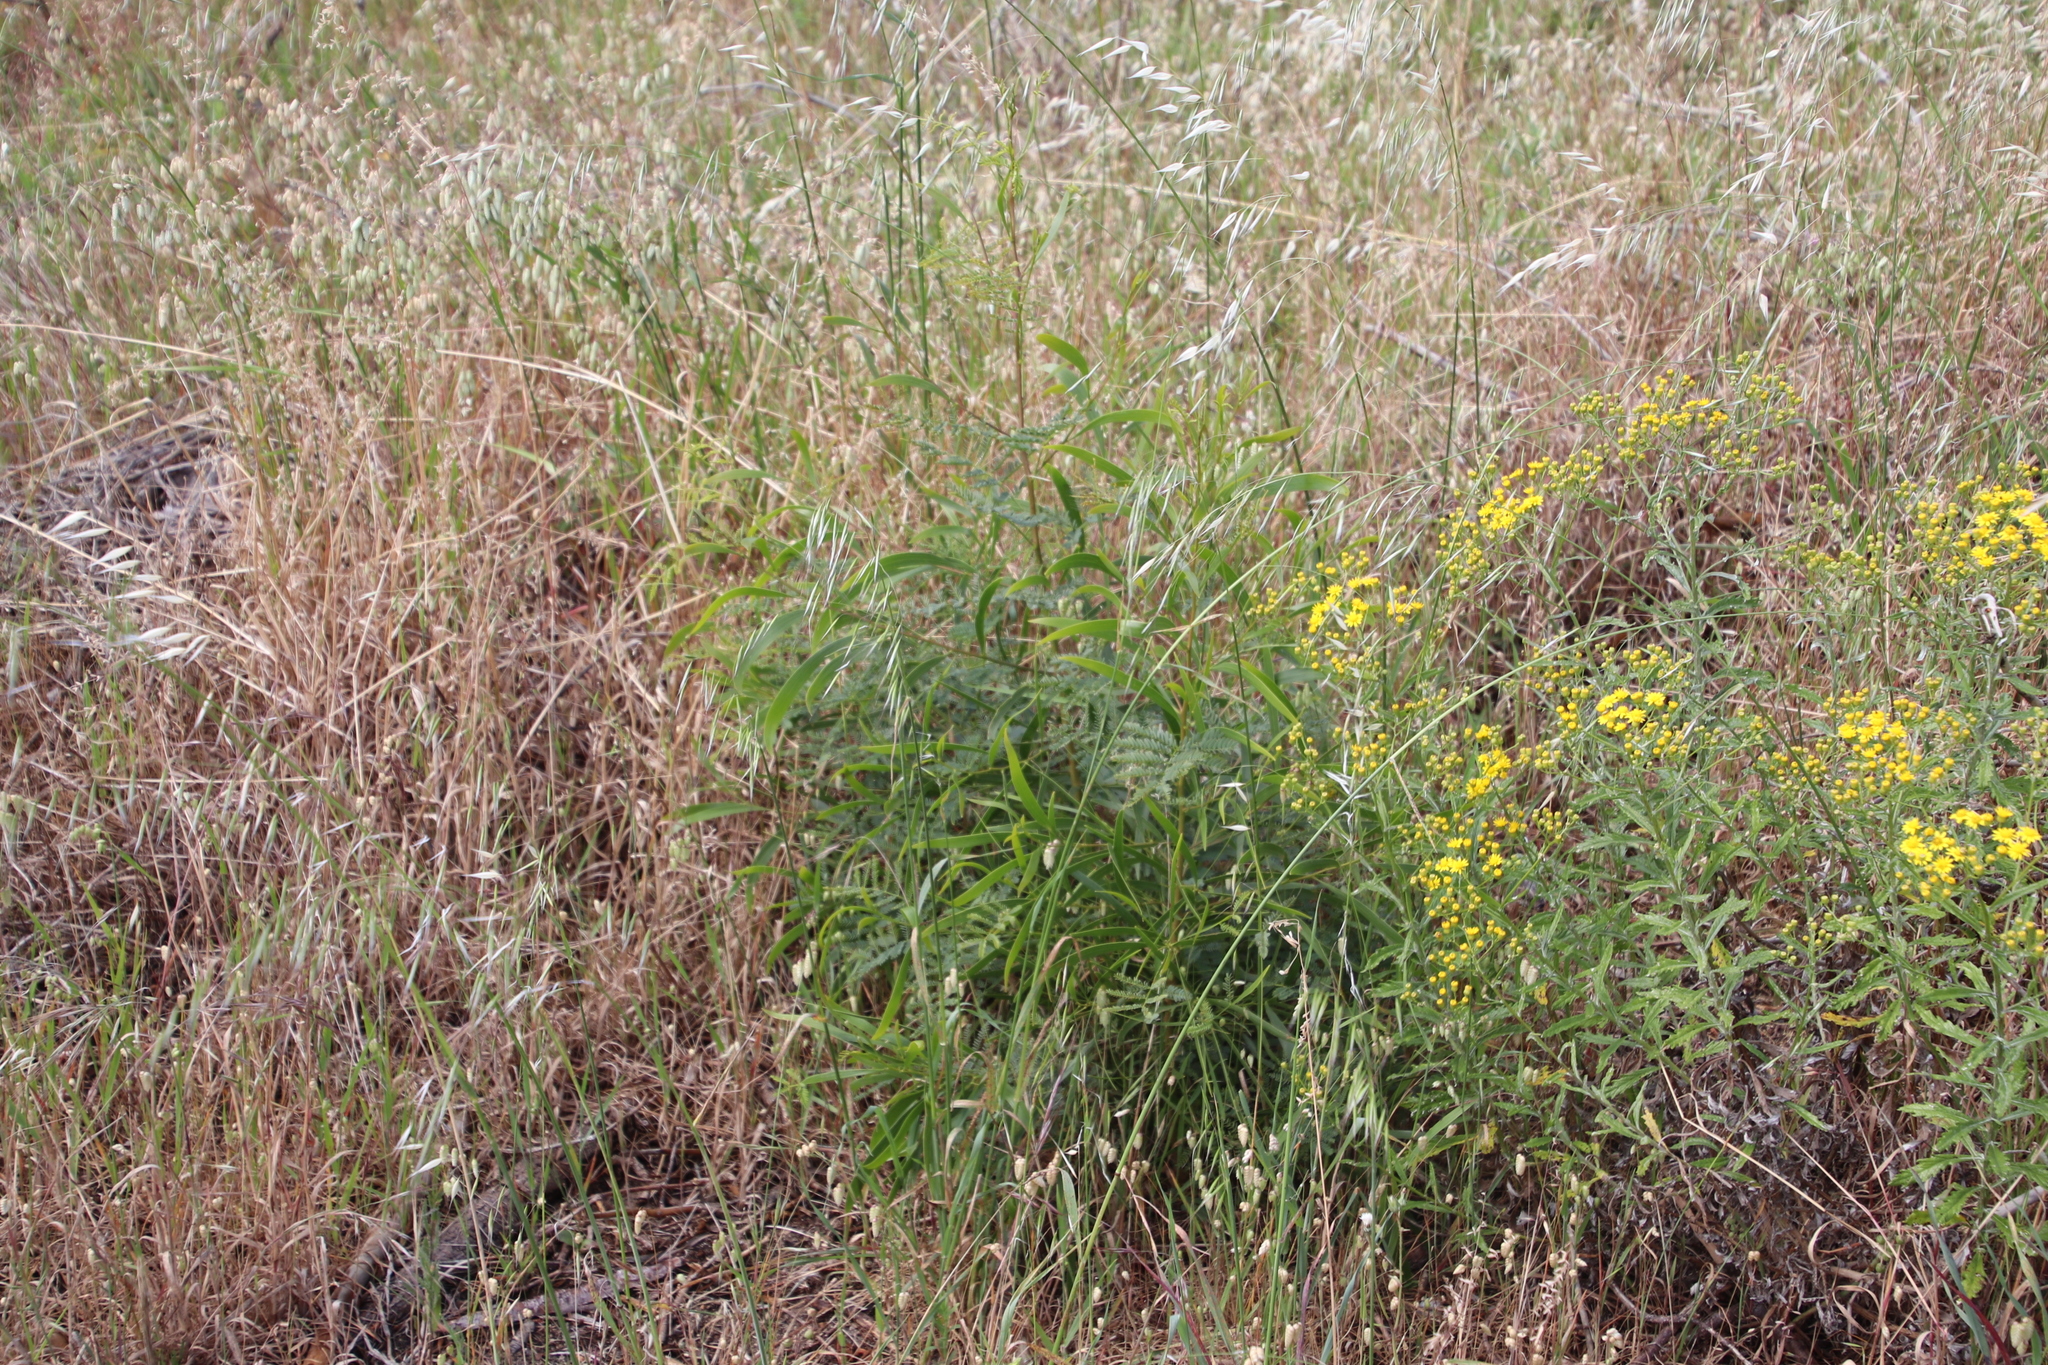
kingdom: Plantae
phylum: Tracheophyta
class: Magnoliopsida
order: Fabales
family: Fabaceae
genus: Acacia
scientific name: Acacia implexa
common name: Black wattle
